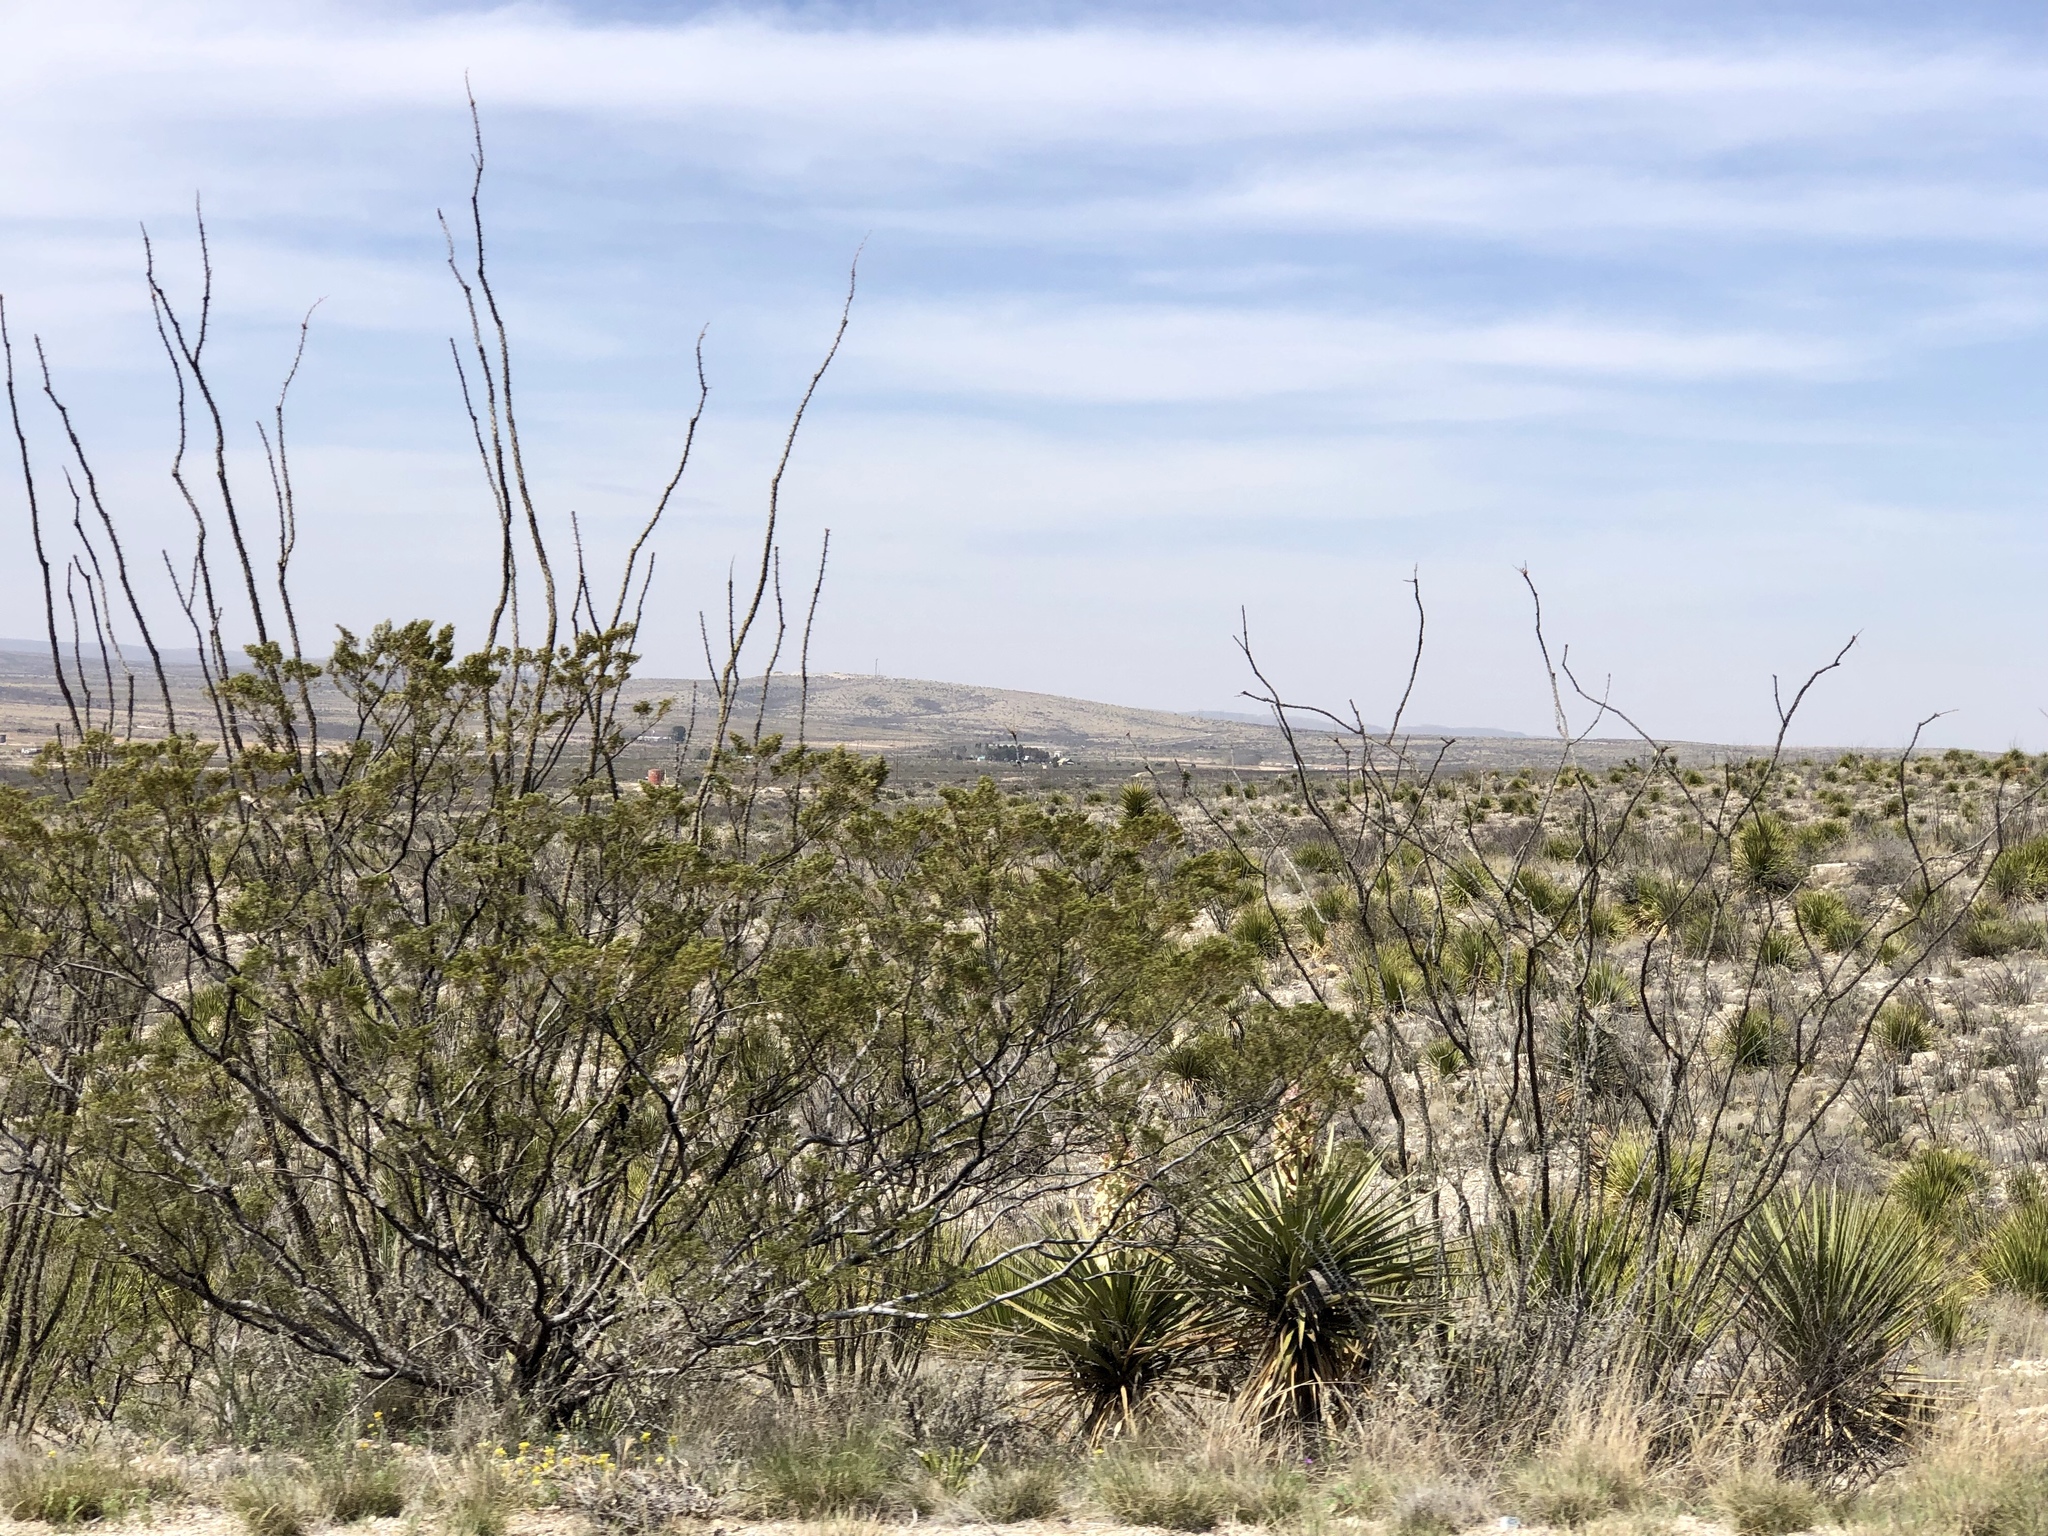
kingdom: Plantae
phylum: Tracheophyta
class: Magnoliopsida
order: Ericales
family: Fouquieriaceae
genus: Fouquieria
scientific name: Fouquieria splendens
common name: Vine-cactus
